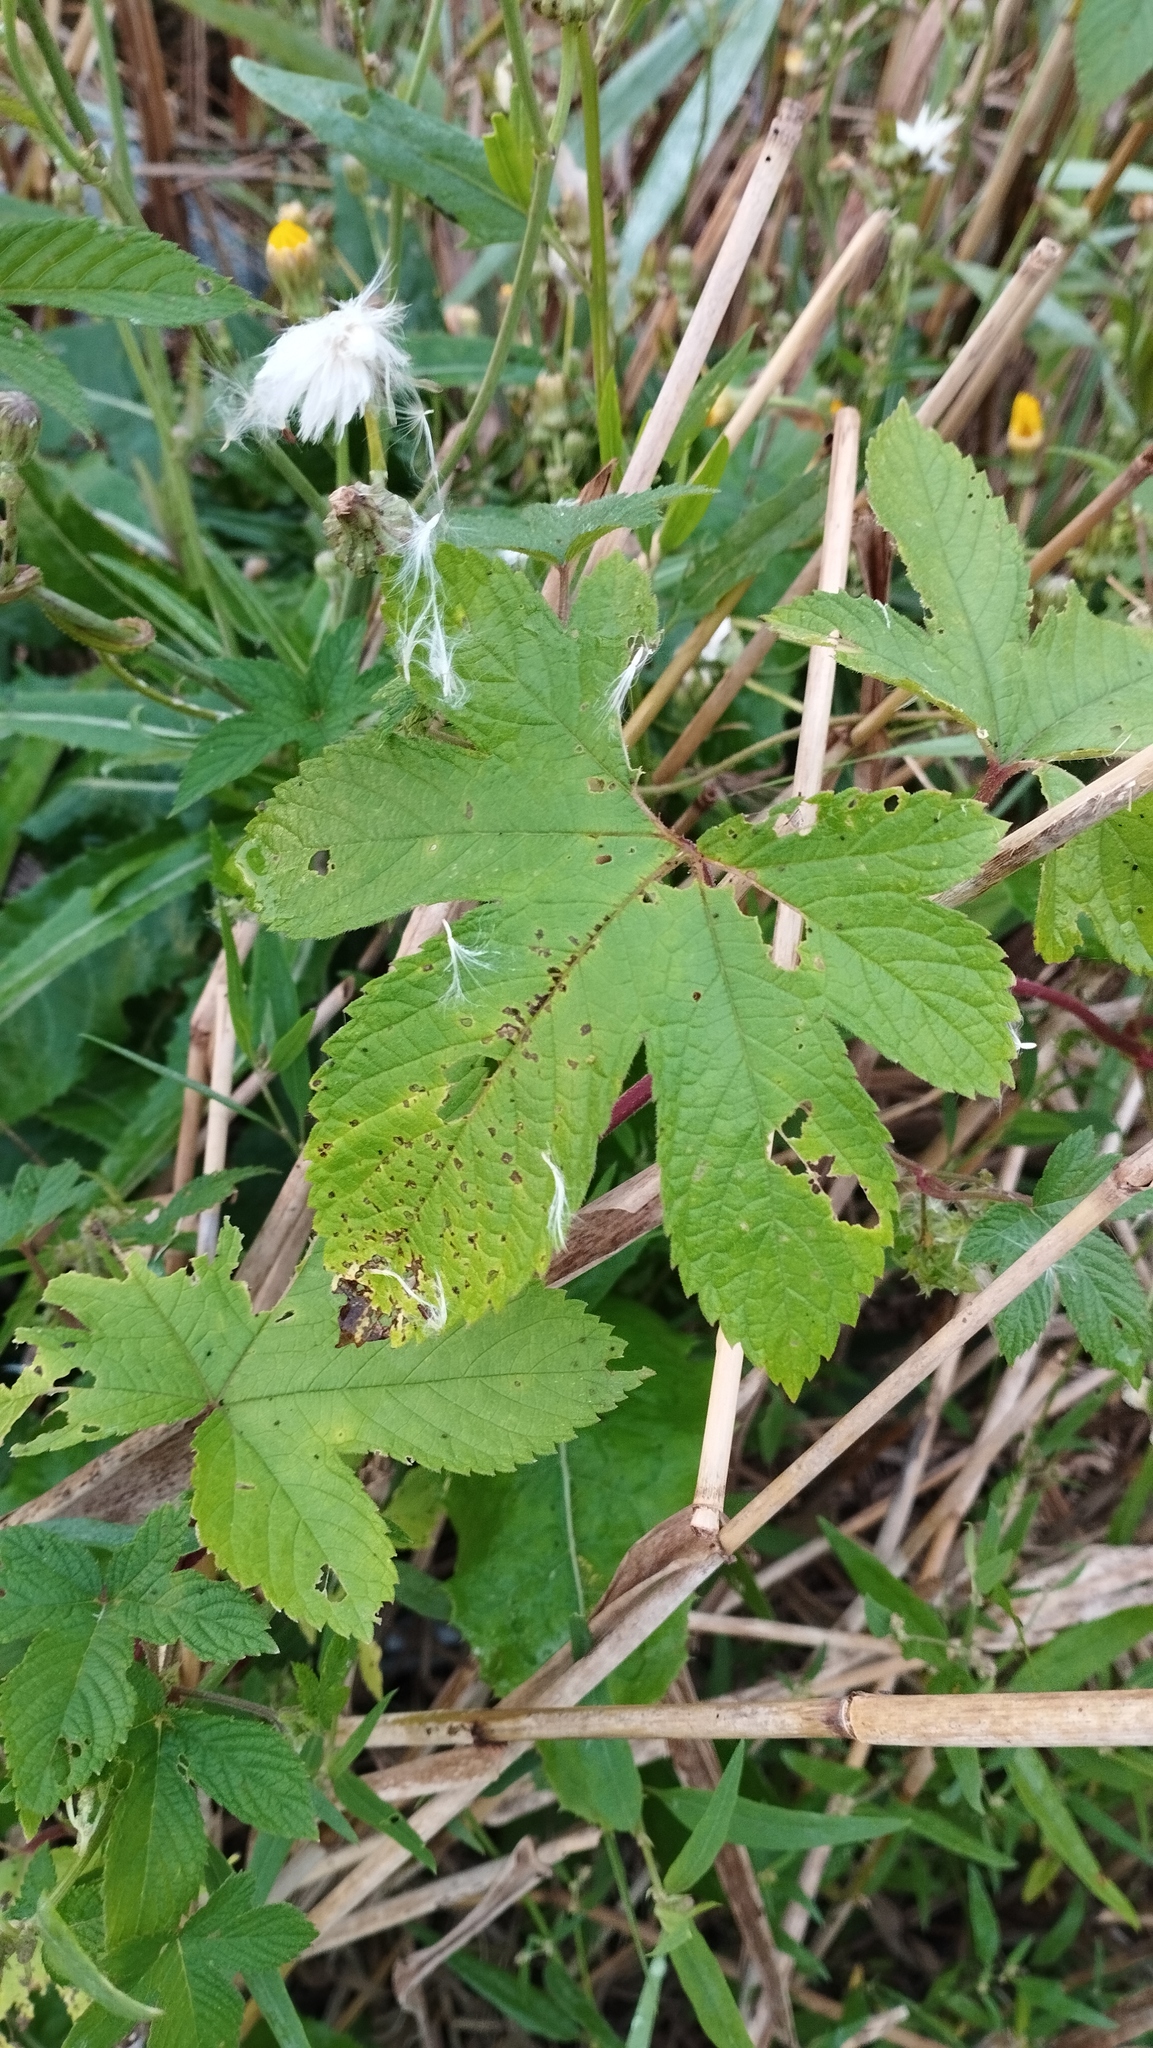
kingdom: Plantae
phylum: Tracheophyta
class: Magnoliopsida
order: Rosales
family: Cannabaceae
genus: Humulus
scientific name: Humulus scandens
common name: Japanese hop
